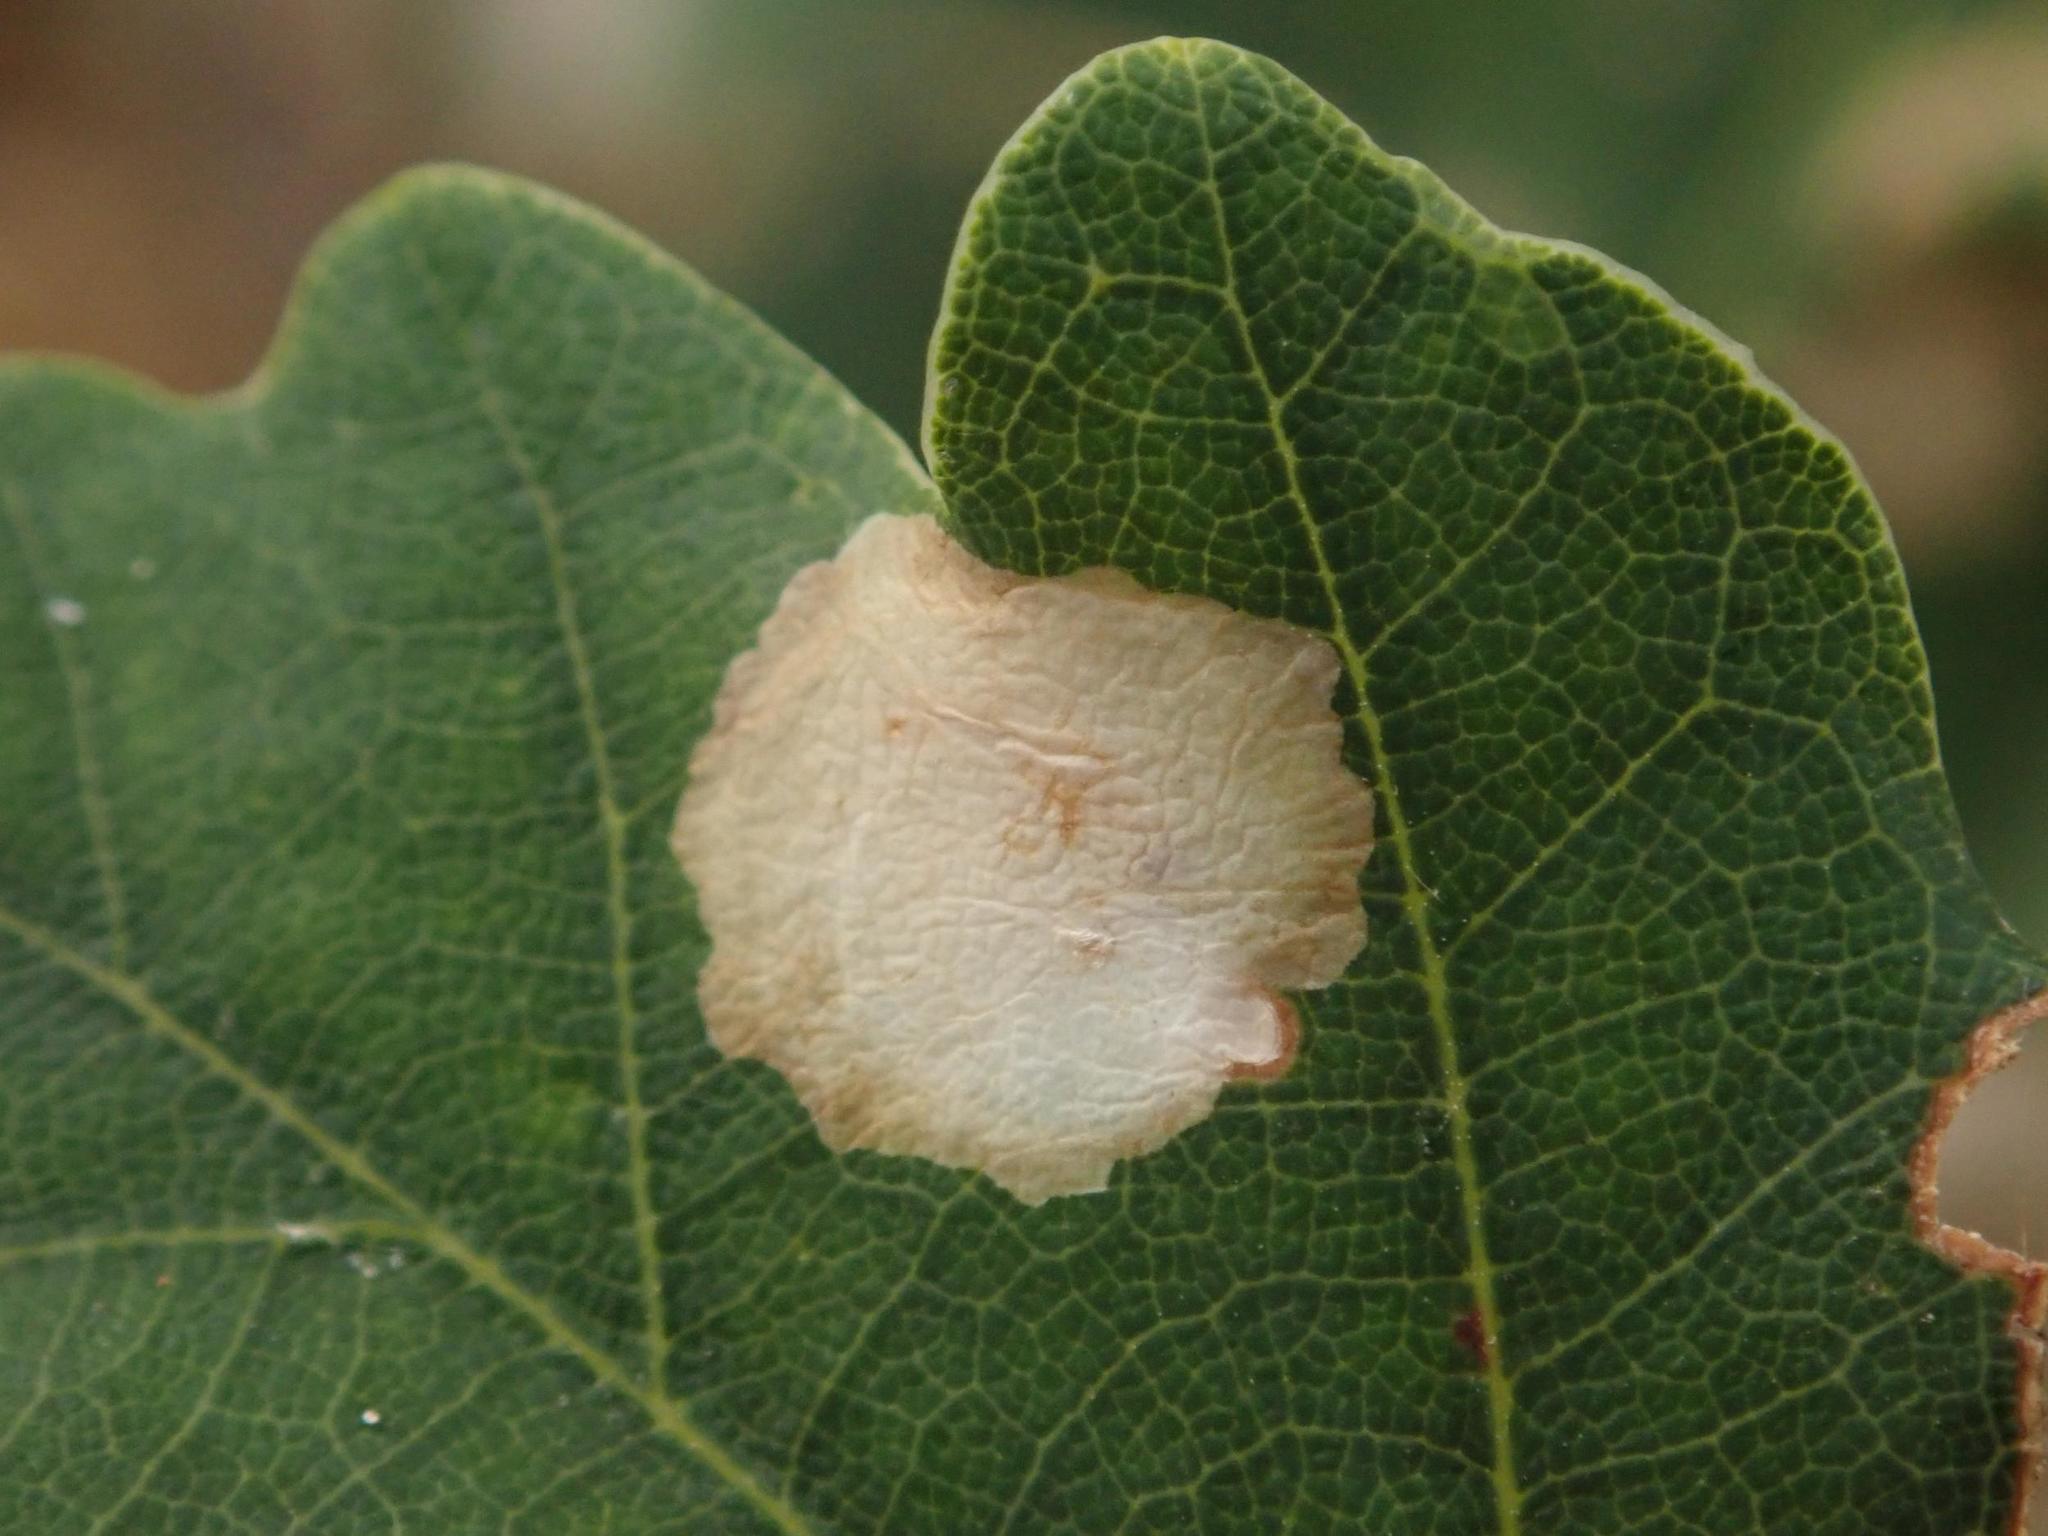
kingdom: Animalia
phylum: Arthropoda
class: Insecta
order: Lepidoptera
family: Tischeriidae
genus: Tischeria
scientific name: Tischeria ekebladella
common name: Oak carl
